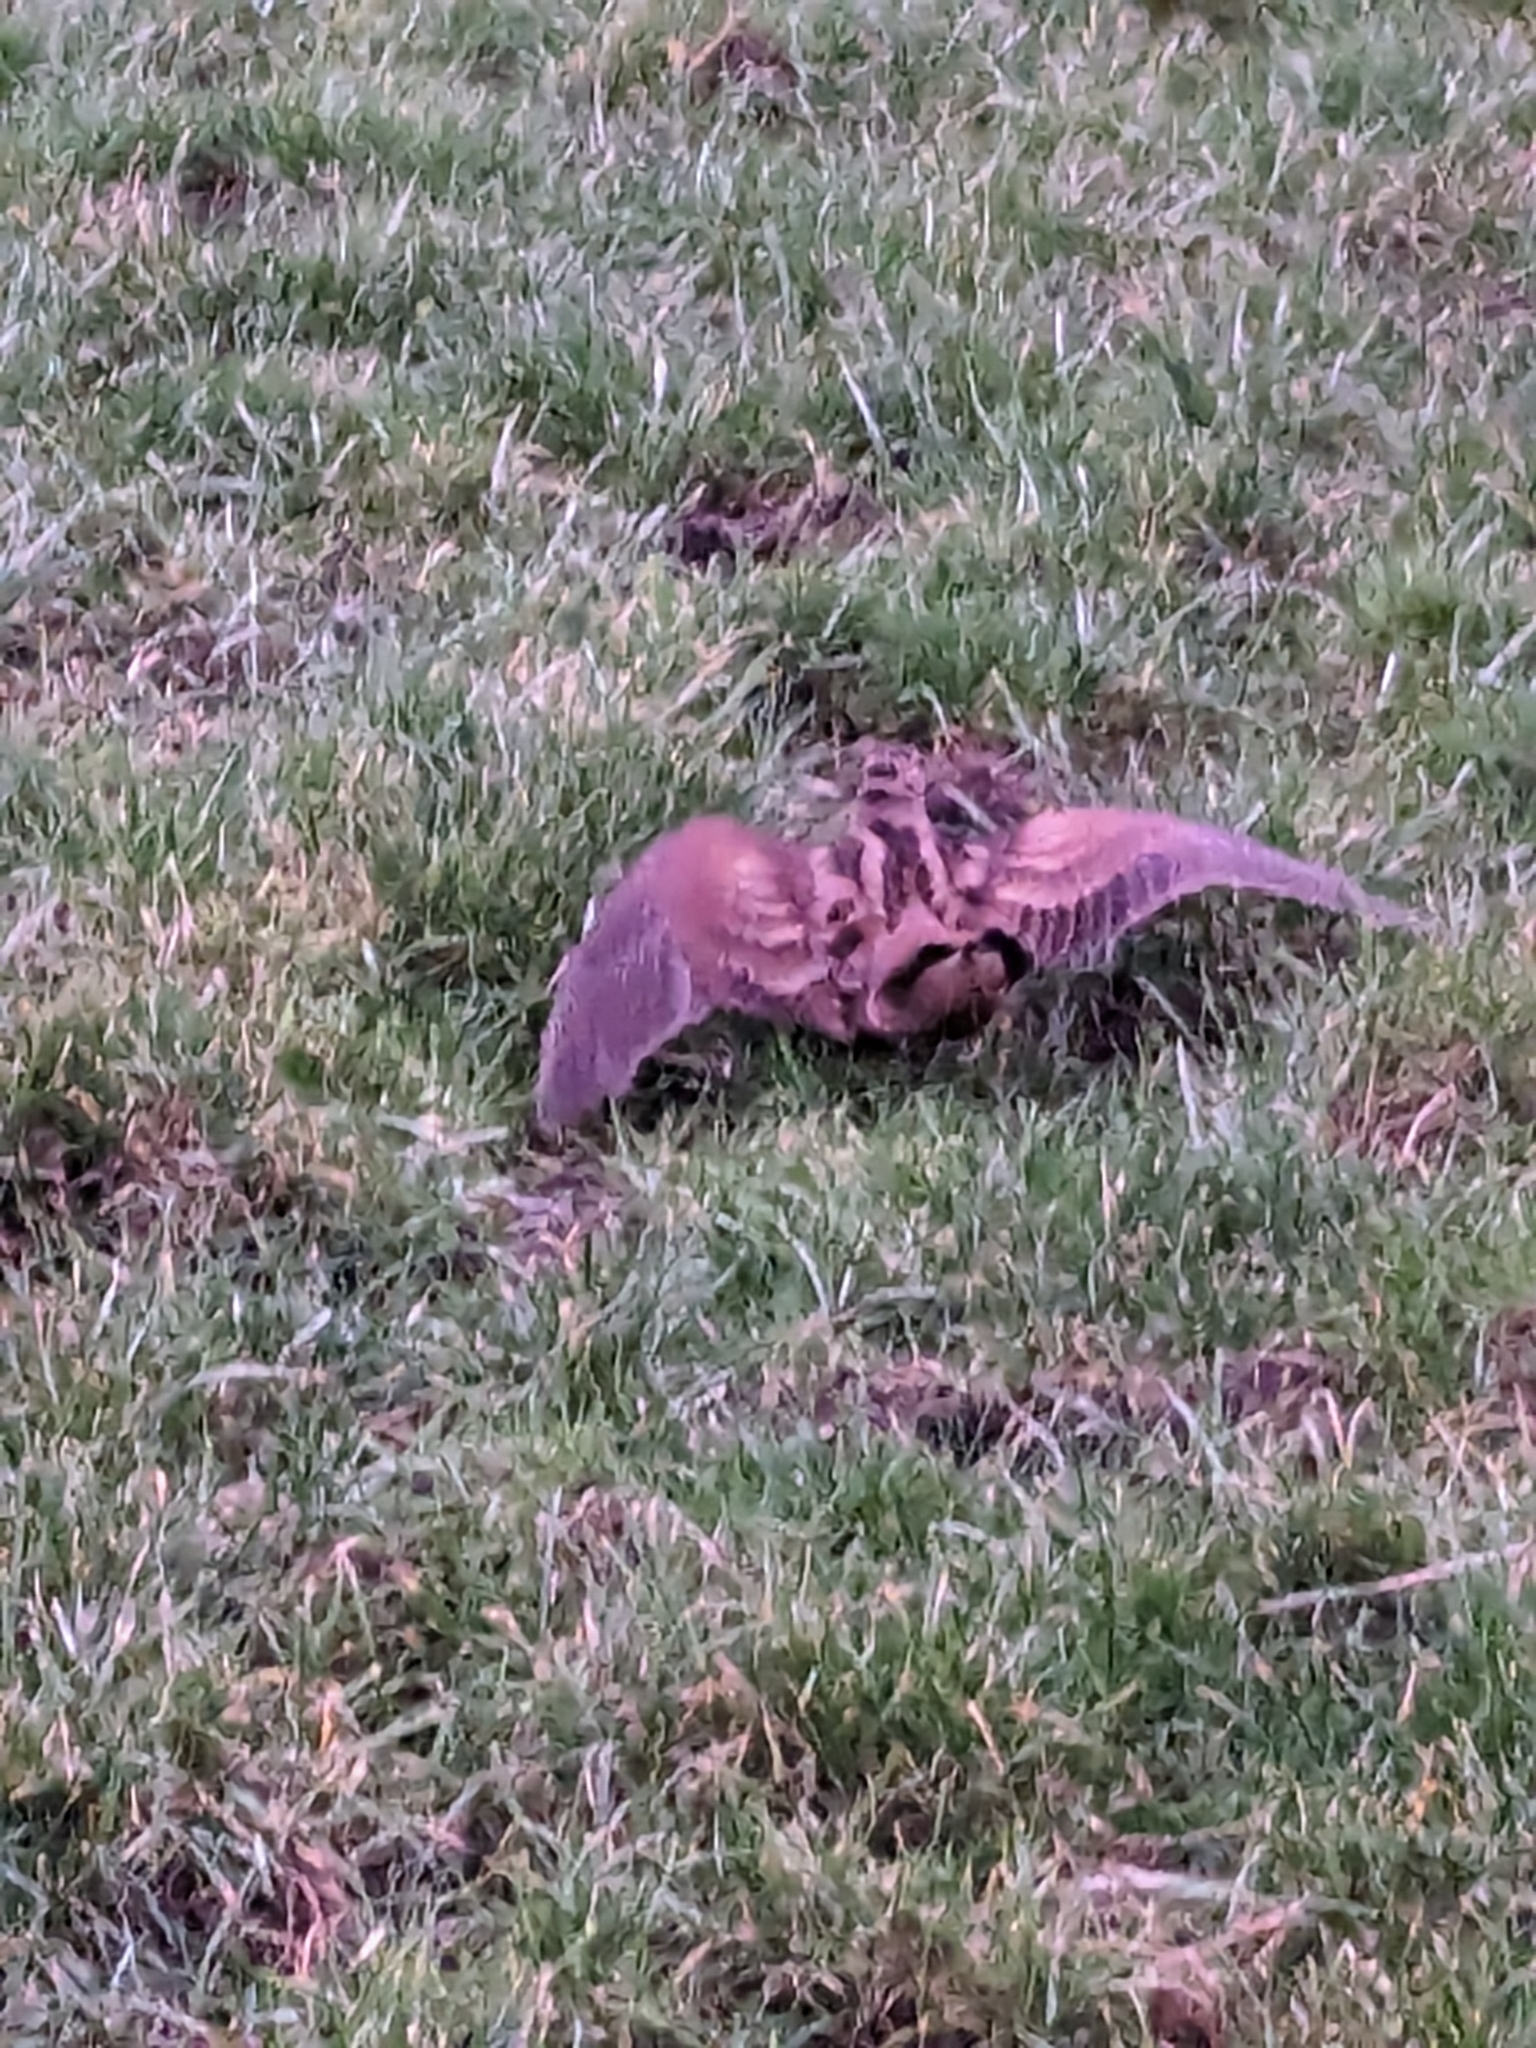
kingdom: Animalia
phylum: Chordata
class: Aves
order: Charadriiformes
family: Scolopacidae
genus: Scolopax
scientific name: Scolopax rusticola
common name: Eurasian woodcock
